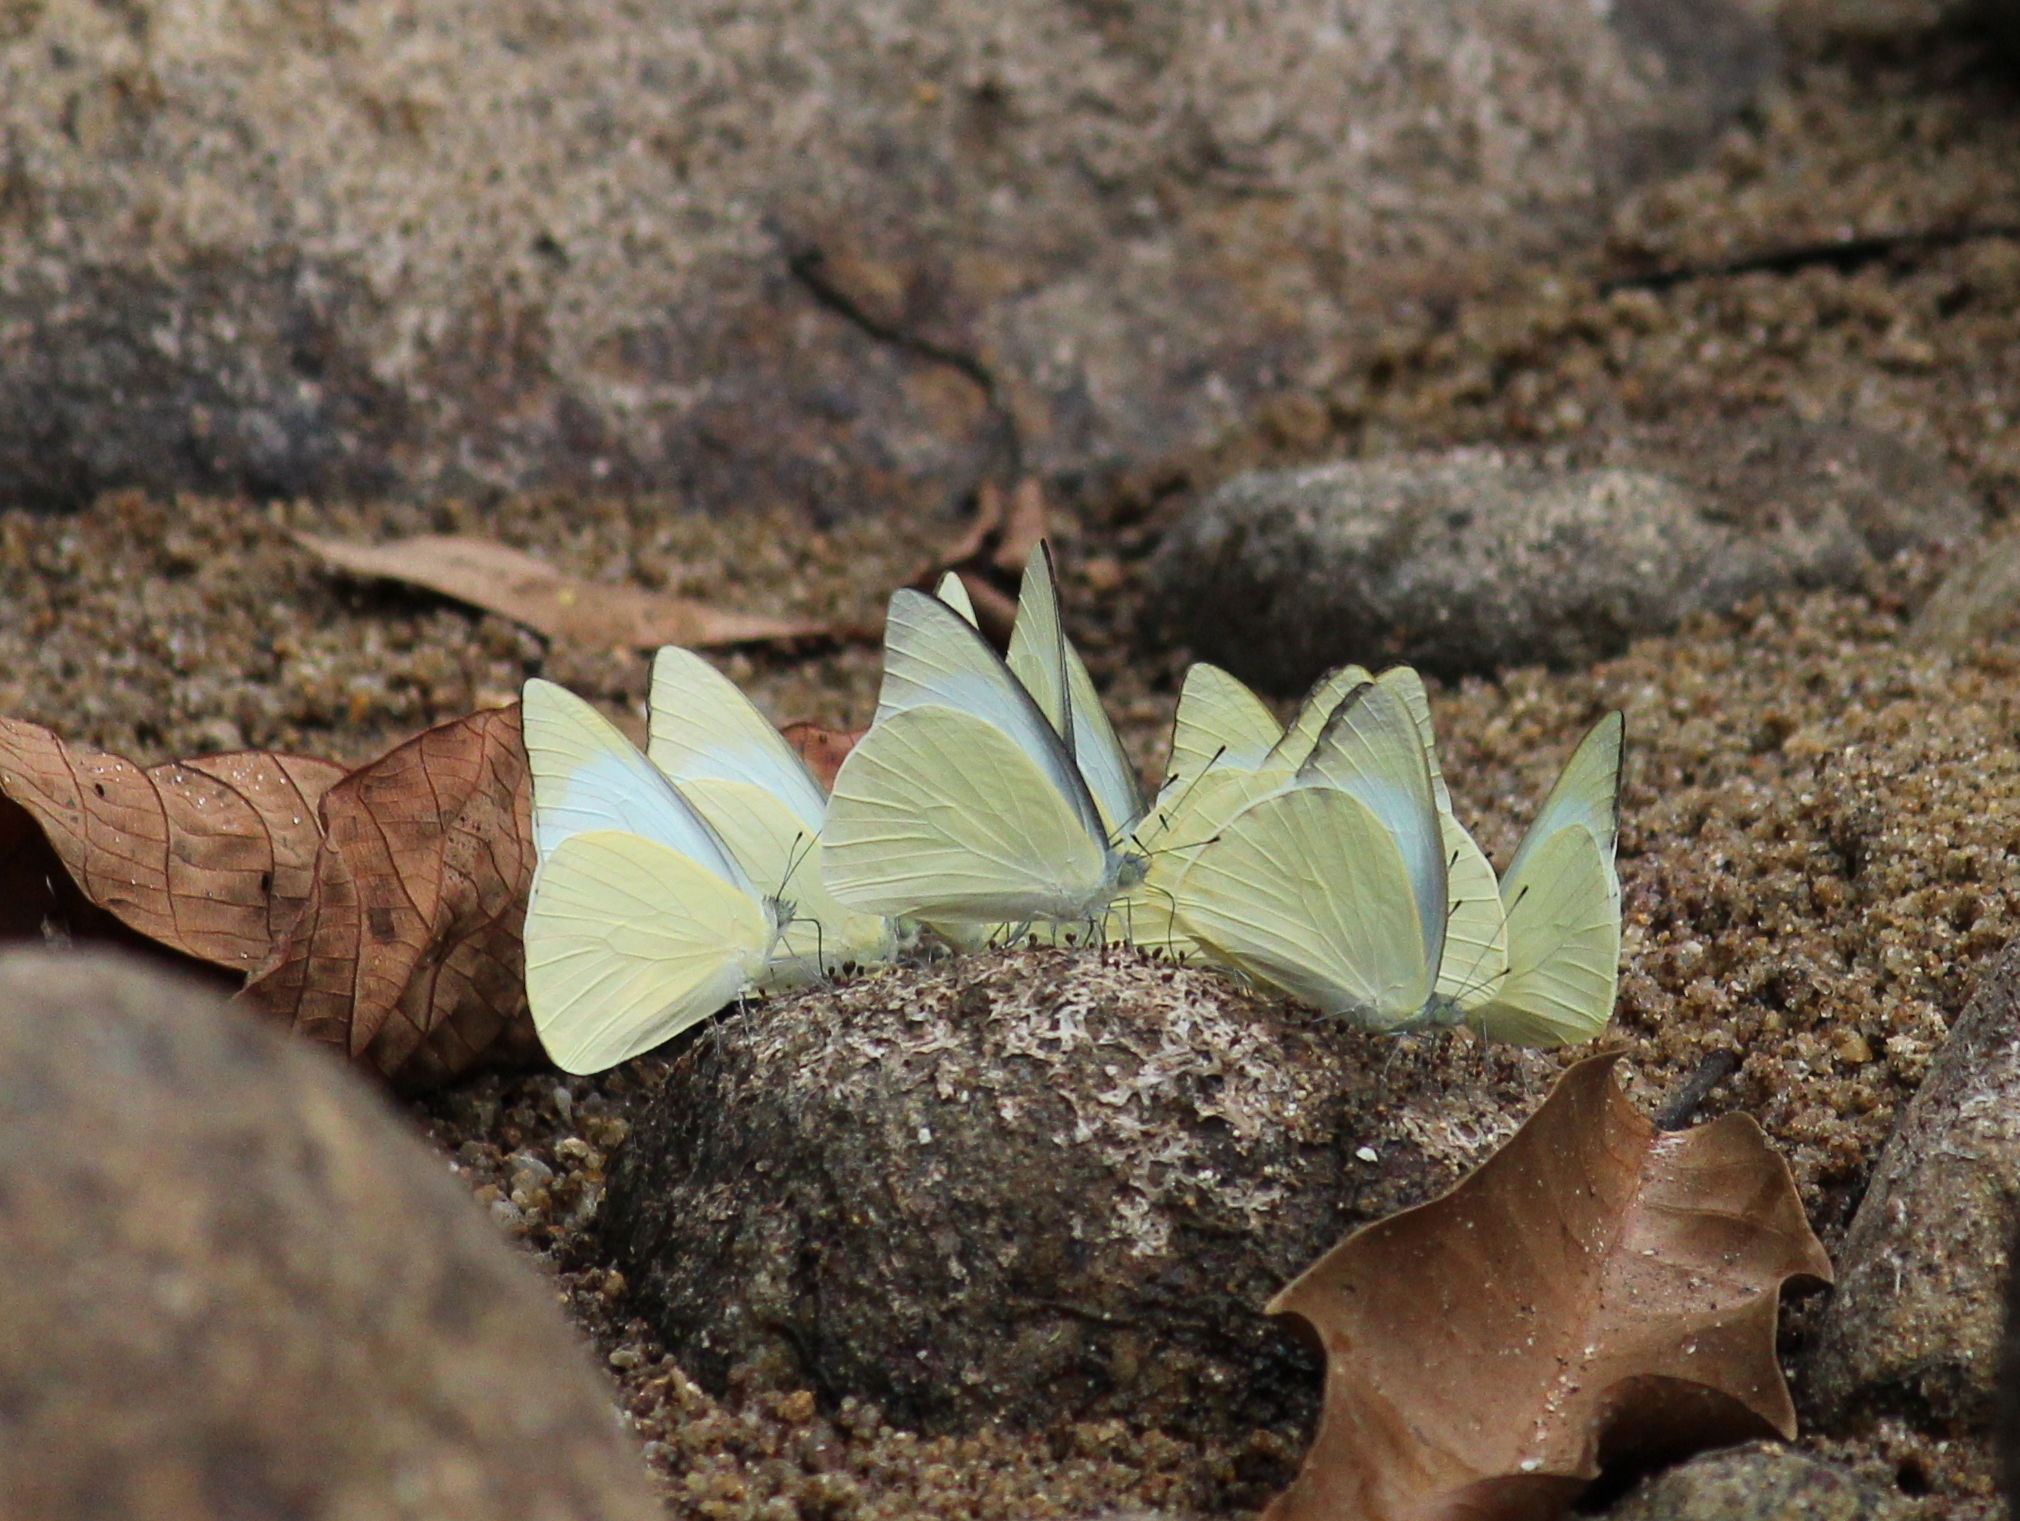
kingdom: Animalia
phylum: Arthropoda
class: Insecta
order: Lepidoptera
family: Pieridae
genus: Appias
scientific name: Appias albina
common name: Common albatross
